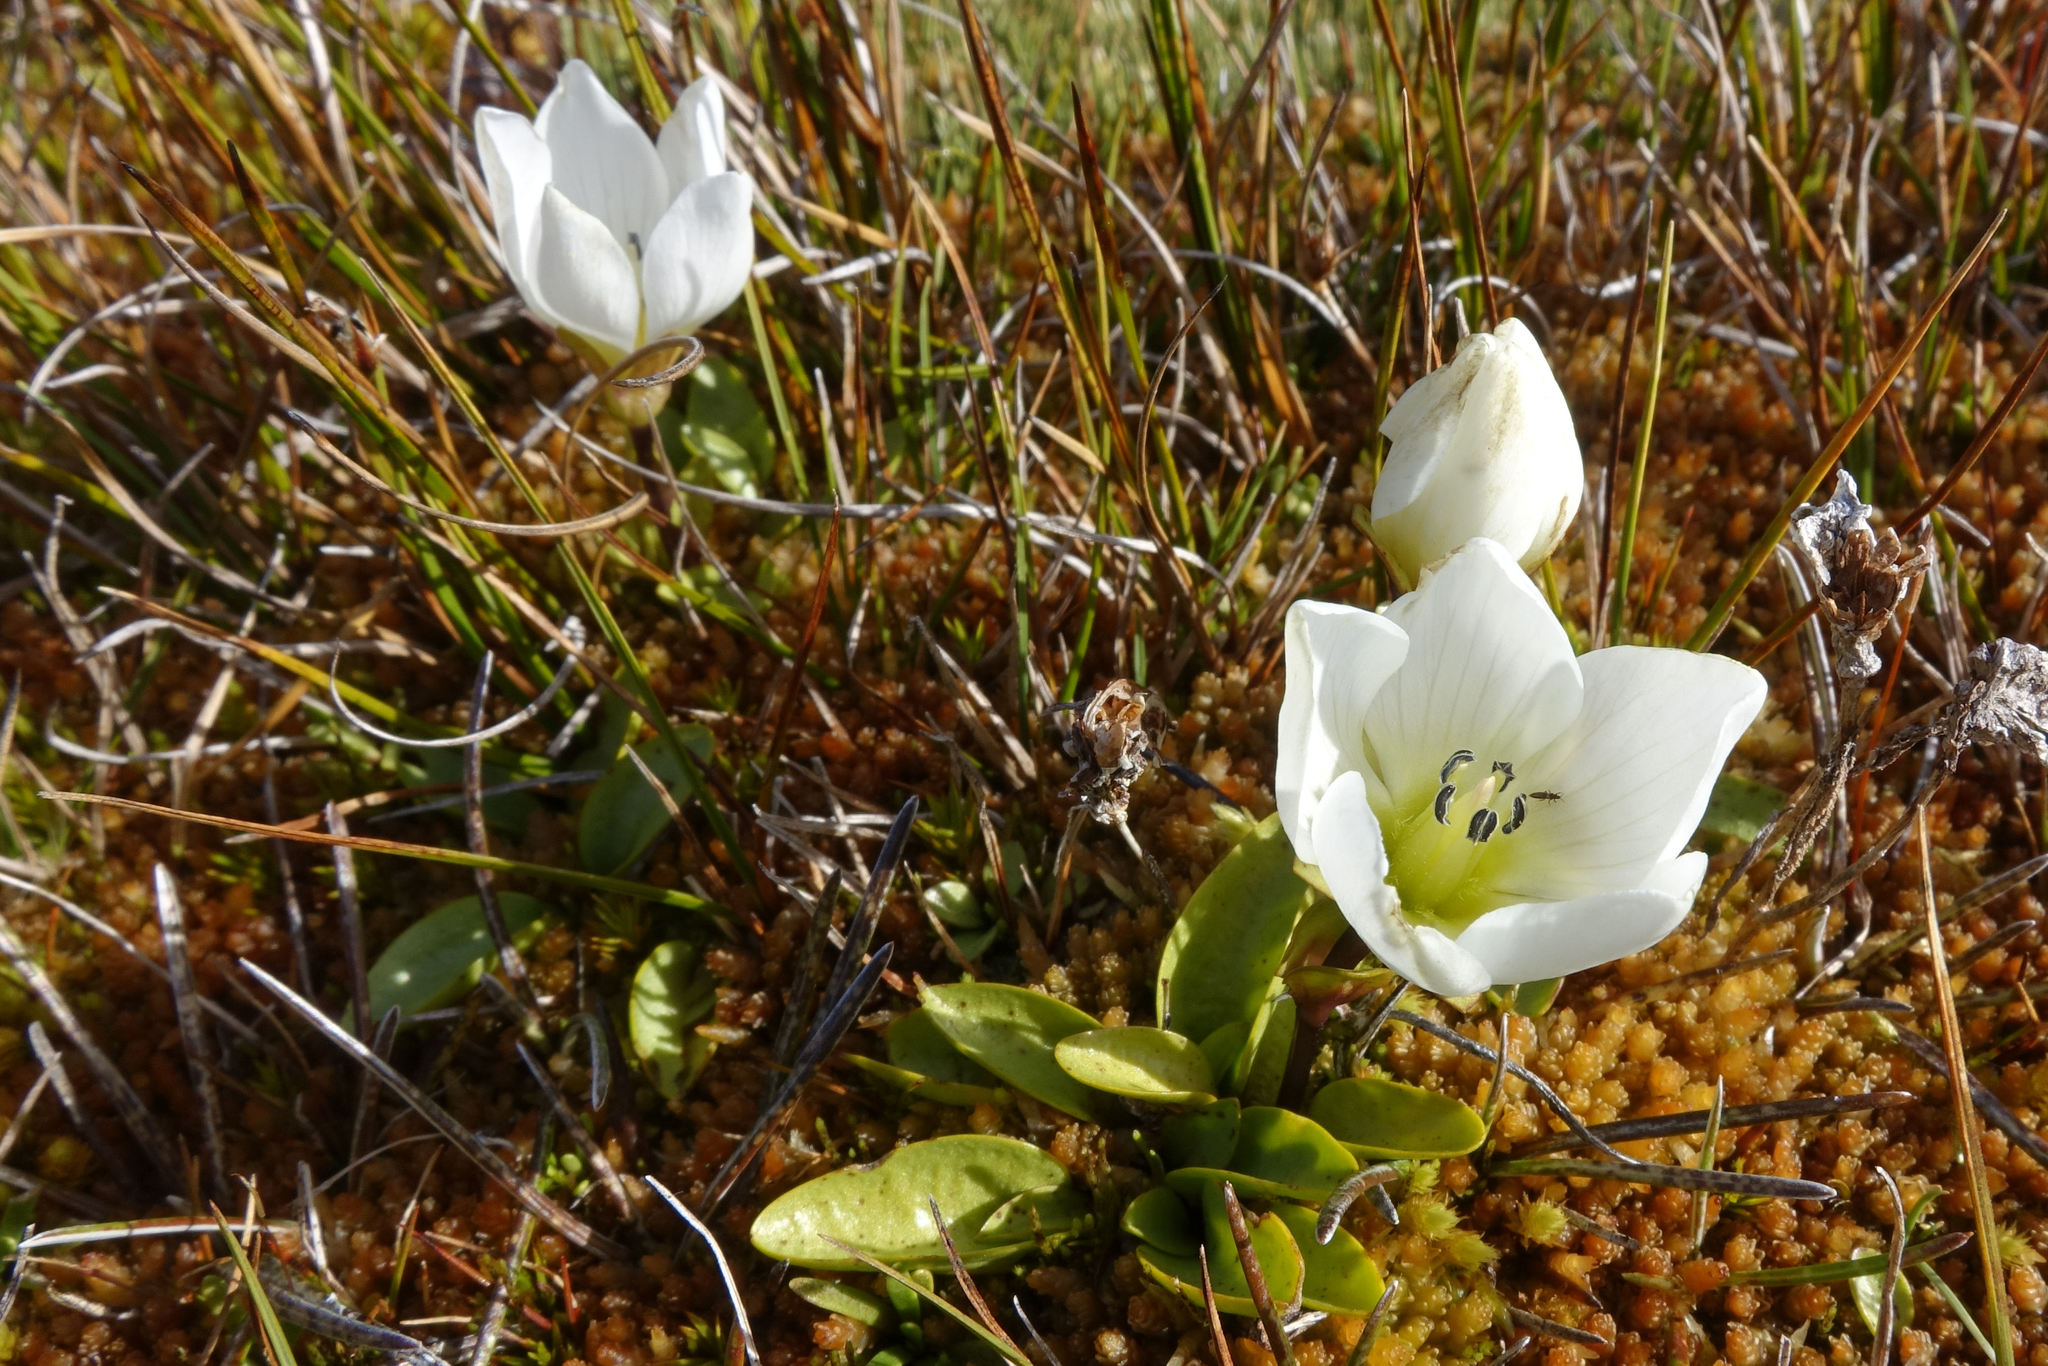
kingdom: Plantae
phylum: Tracheophyta
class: Magnoliopsida
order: Gentianales
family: Gentianaceae
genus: Gentianella
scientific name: Gentianella amabilis
